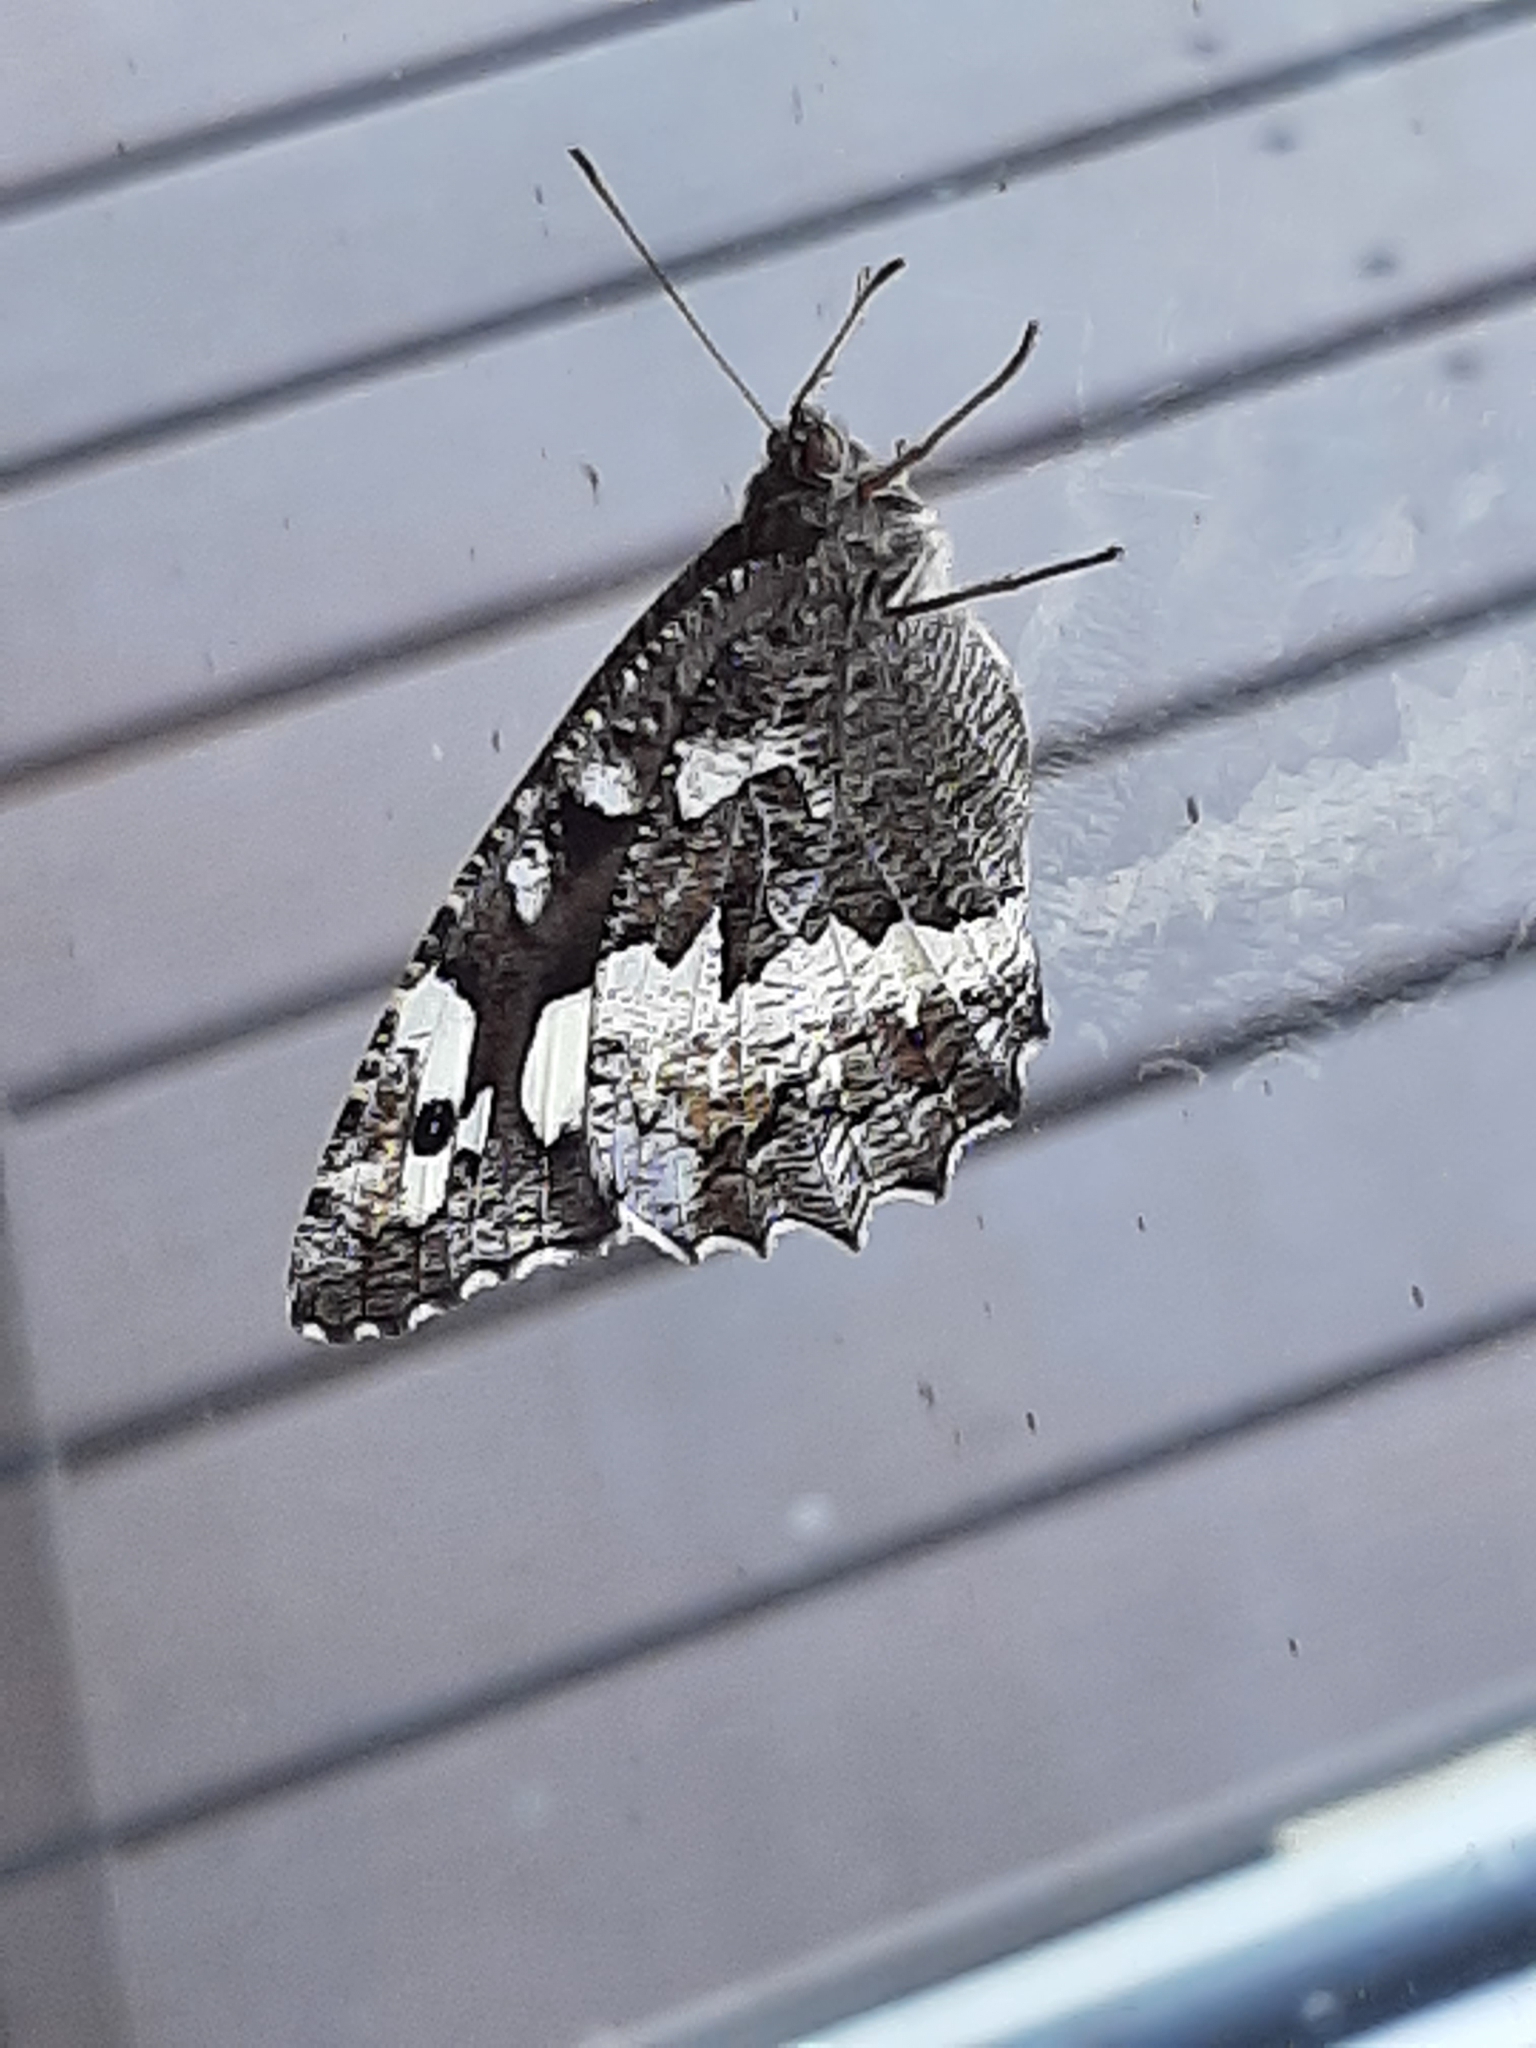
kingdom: Animalia
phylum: Arthropoda
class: Insecta
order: Lepidoptera
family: Lycaenidae
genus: Loweia
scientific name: Loweia tityrus
